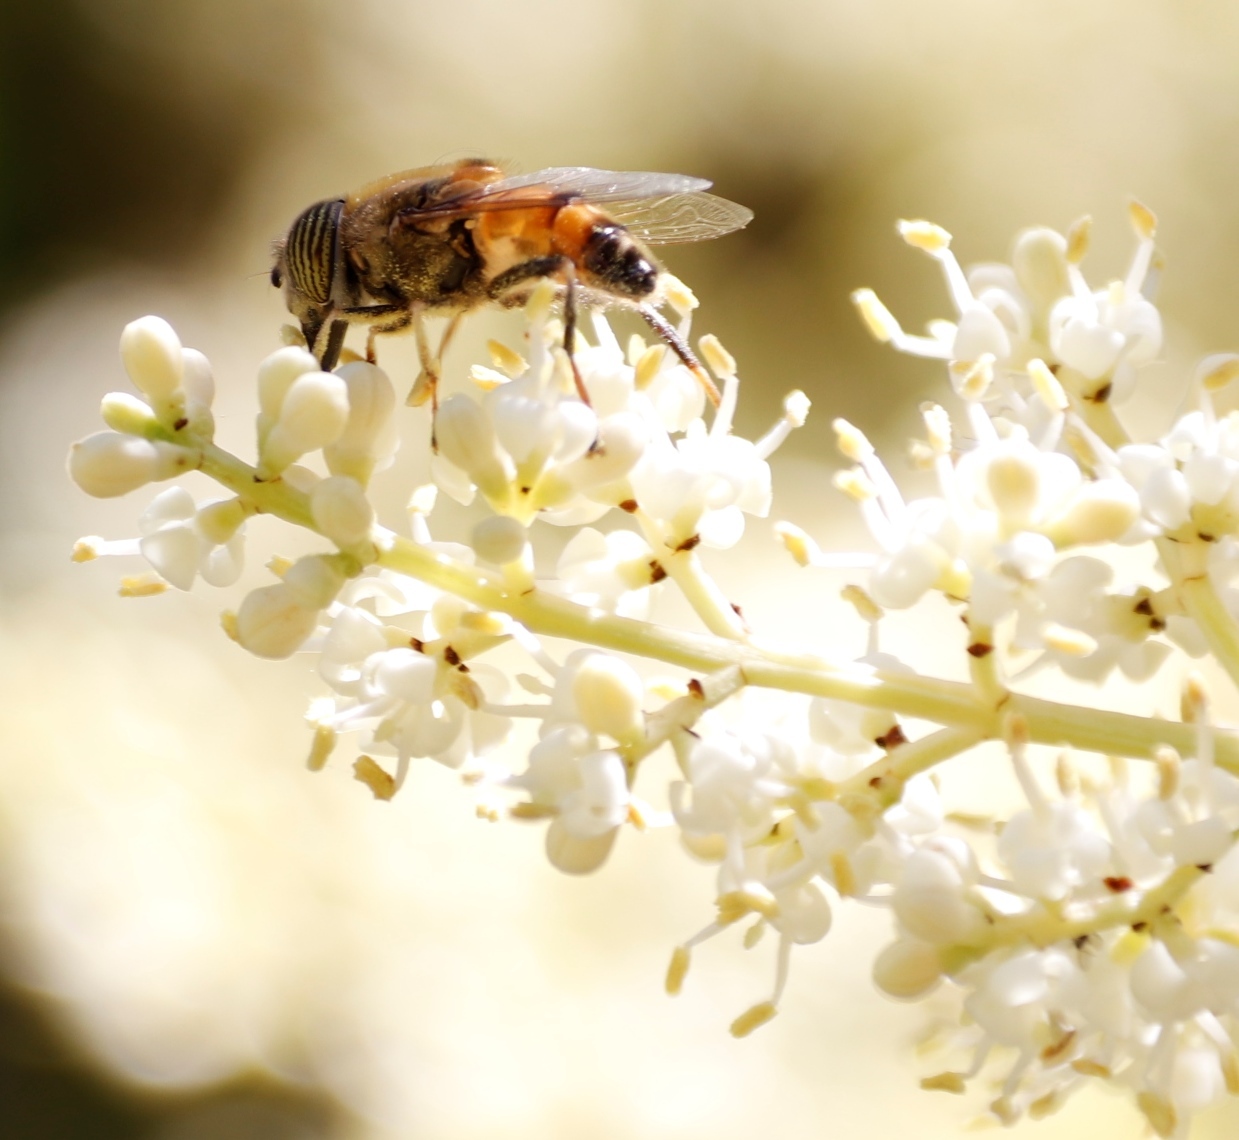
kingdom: Animalia
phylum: Arthropoda
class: Insecta
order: Diptera
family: Syrphidae
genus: Eristalinus
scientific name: Eristalinus taeniops
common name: Syrphid fly
